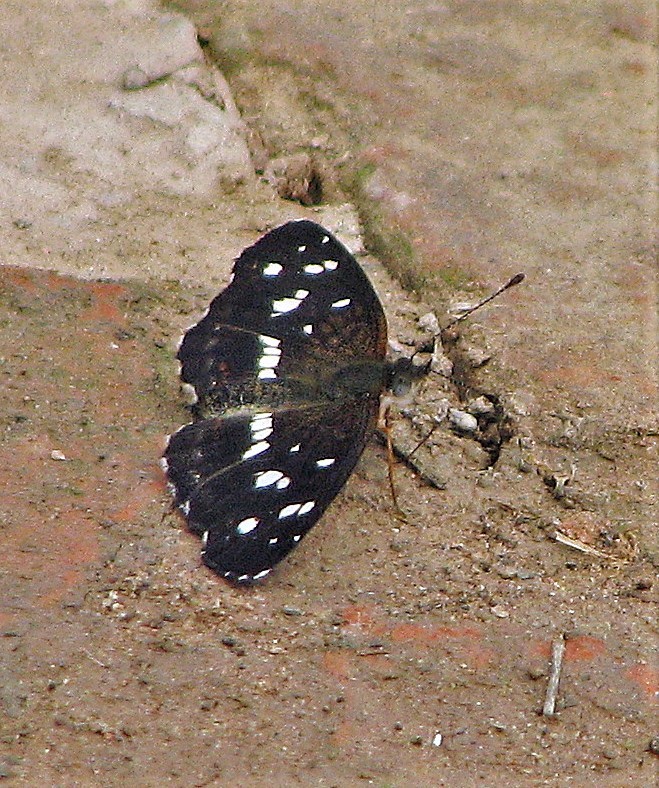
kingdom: Animalia
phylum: Arthropoda
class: Insecta
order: Lepidoptera
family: Nymphalidae
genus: Ortilia
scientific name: Ortilia ithra
